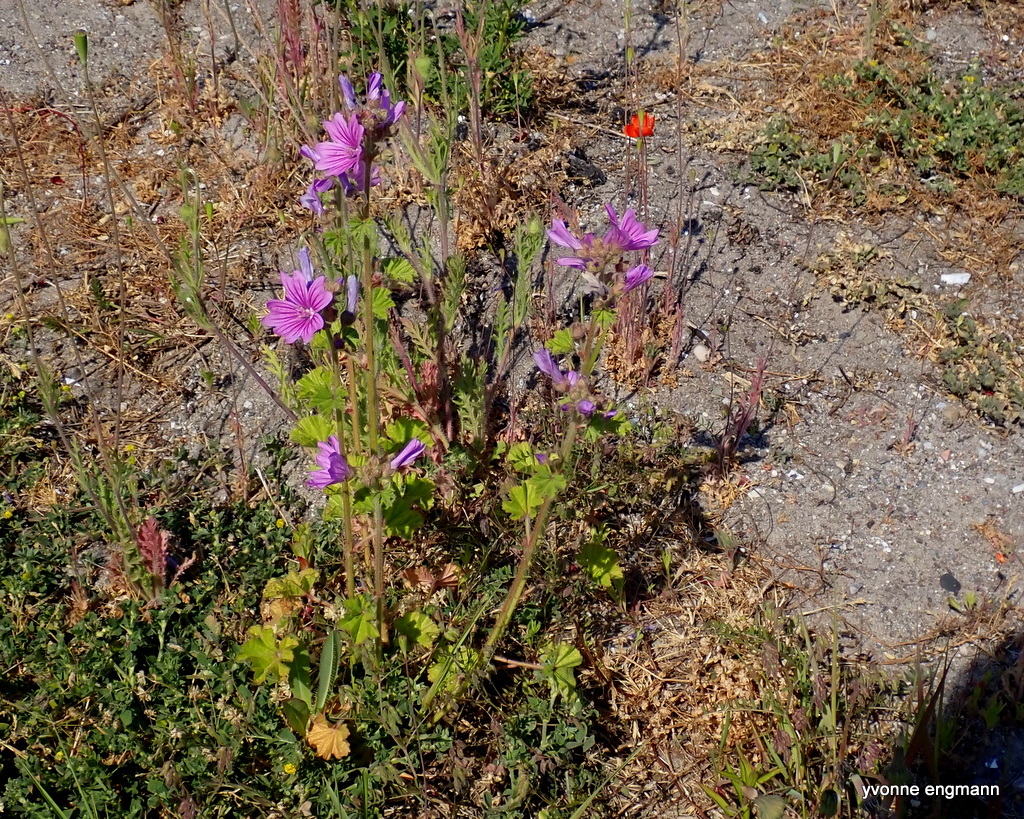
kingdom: Plantae
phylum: Tracheophyta
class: Magnoliopsida
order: Malvales
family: Malvaceae
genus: Malva
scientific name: Malva sylvestris
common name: Common mallow
